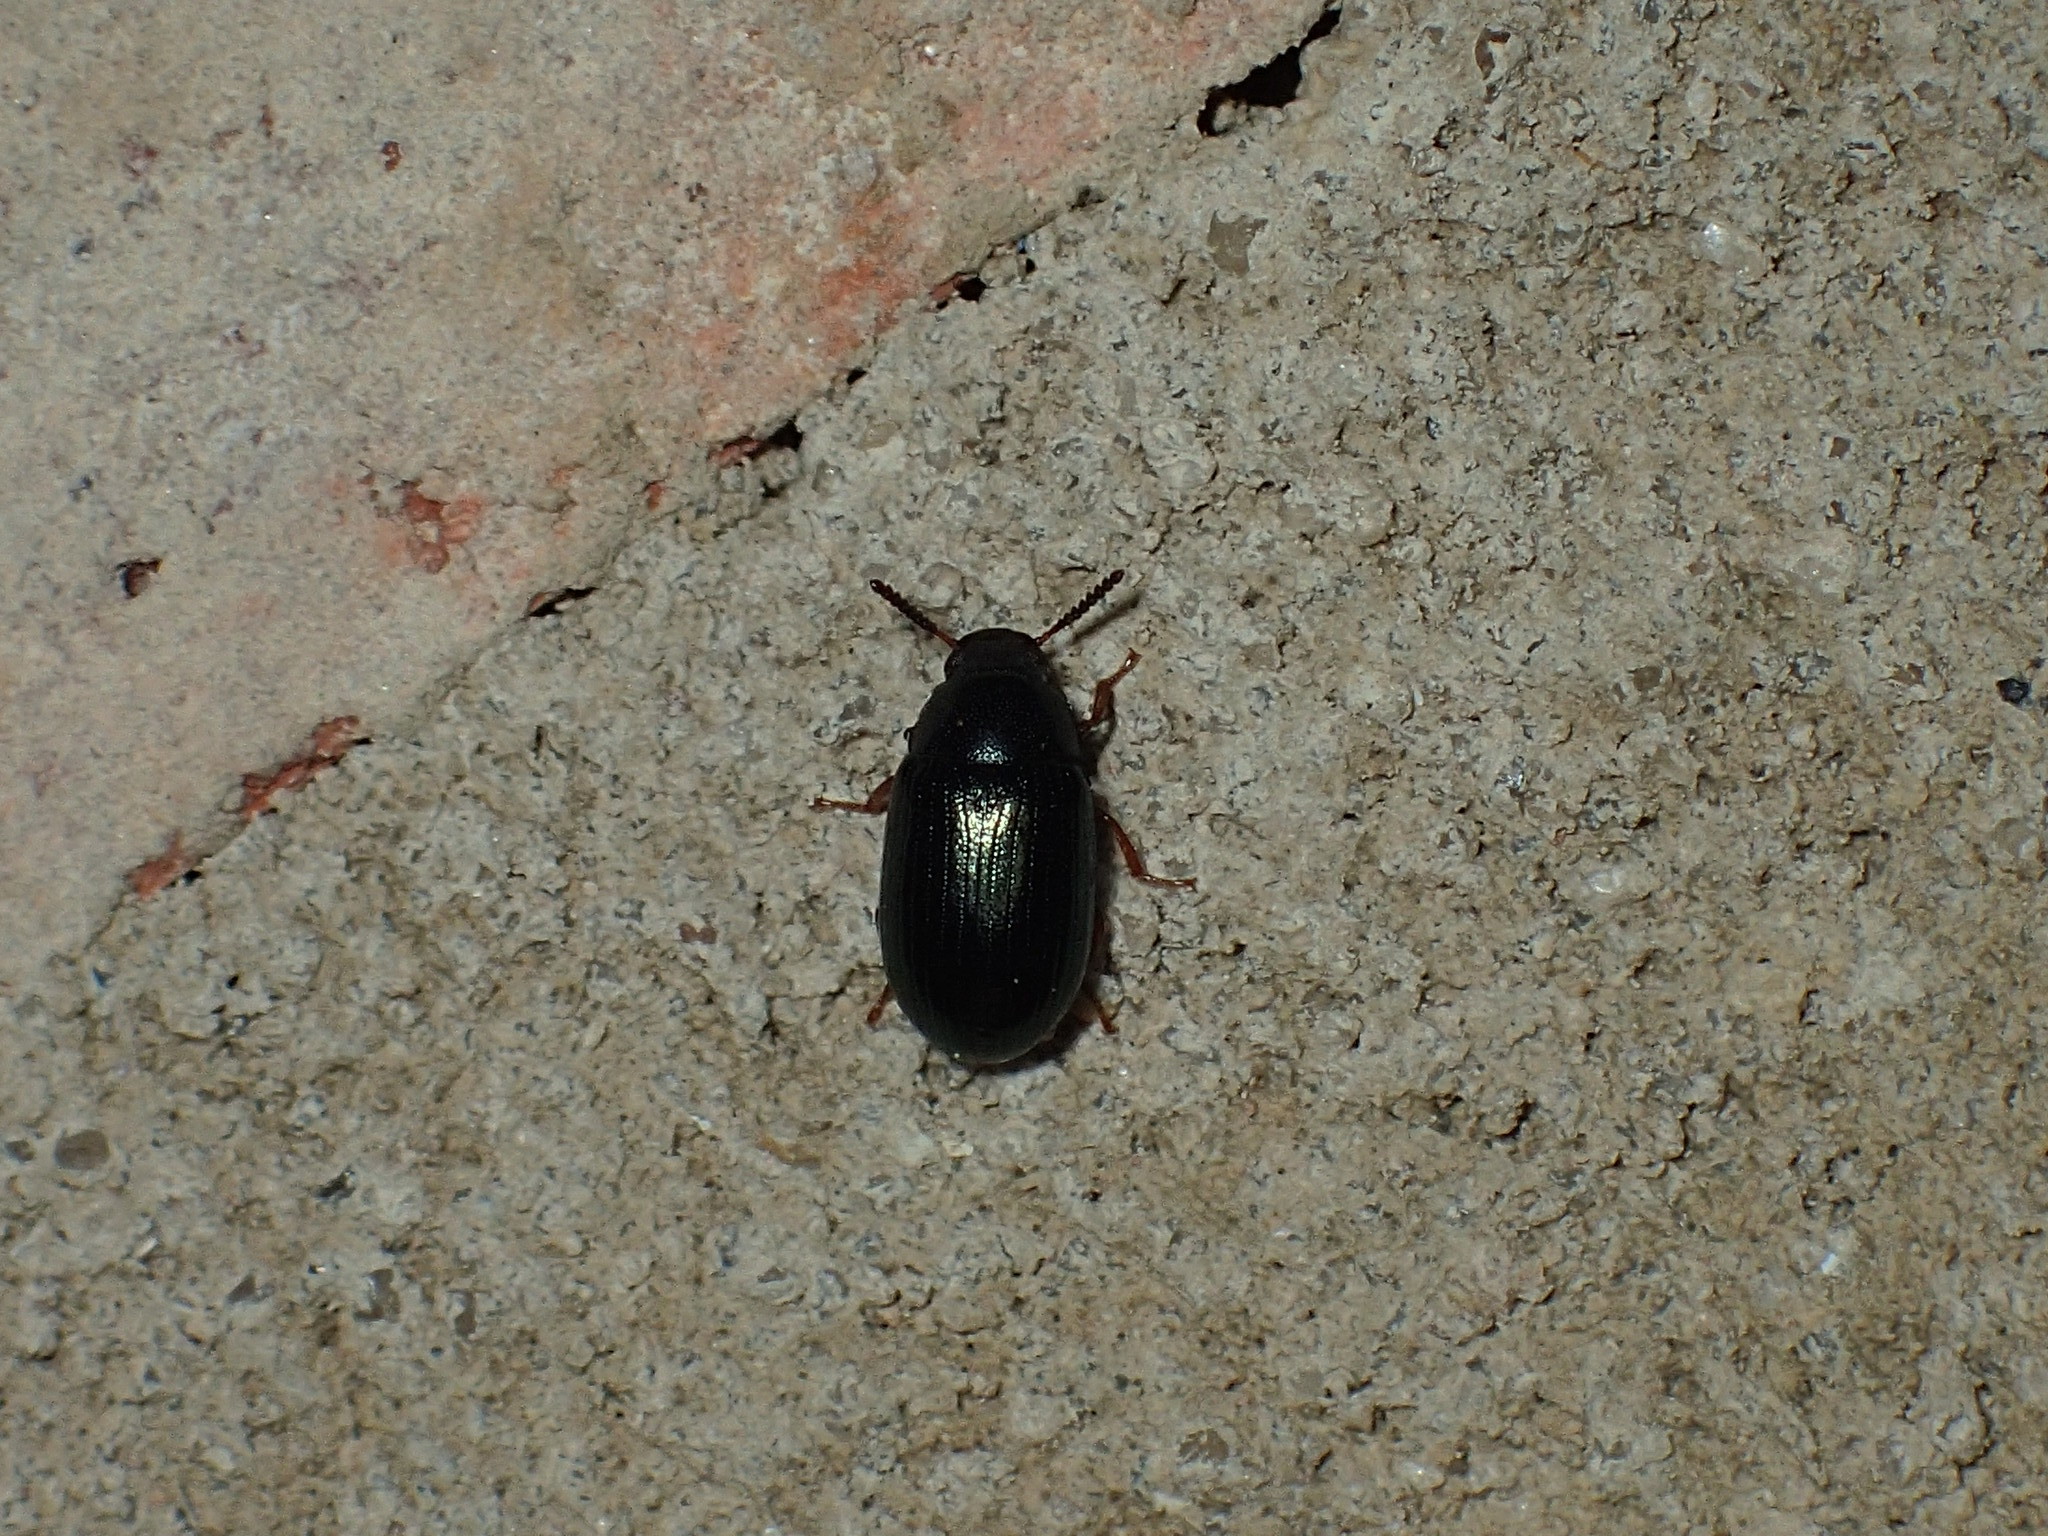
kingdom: Animalia
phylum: Arthropoda
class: Insecta
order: Coleoptera
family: Tenebrionidae
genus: Neomida
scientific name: Neomida bicornis
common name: Two-horned darkling beetle
